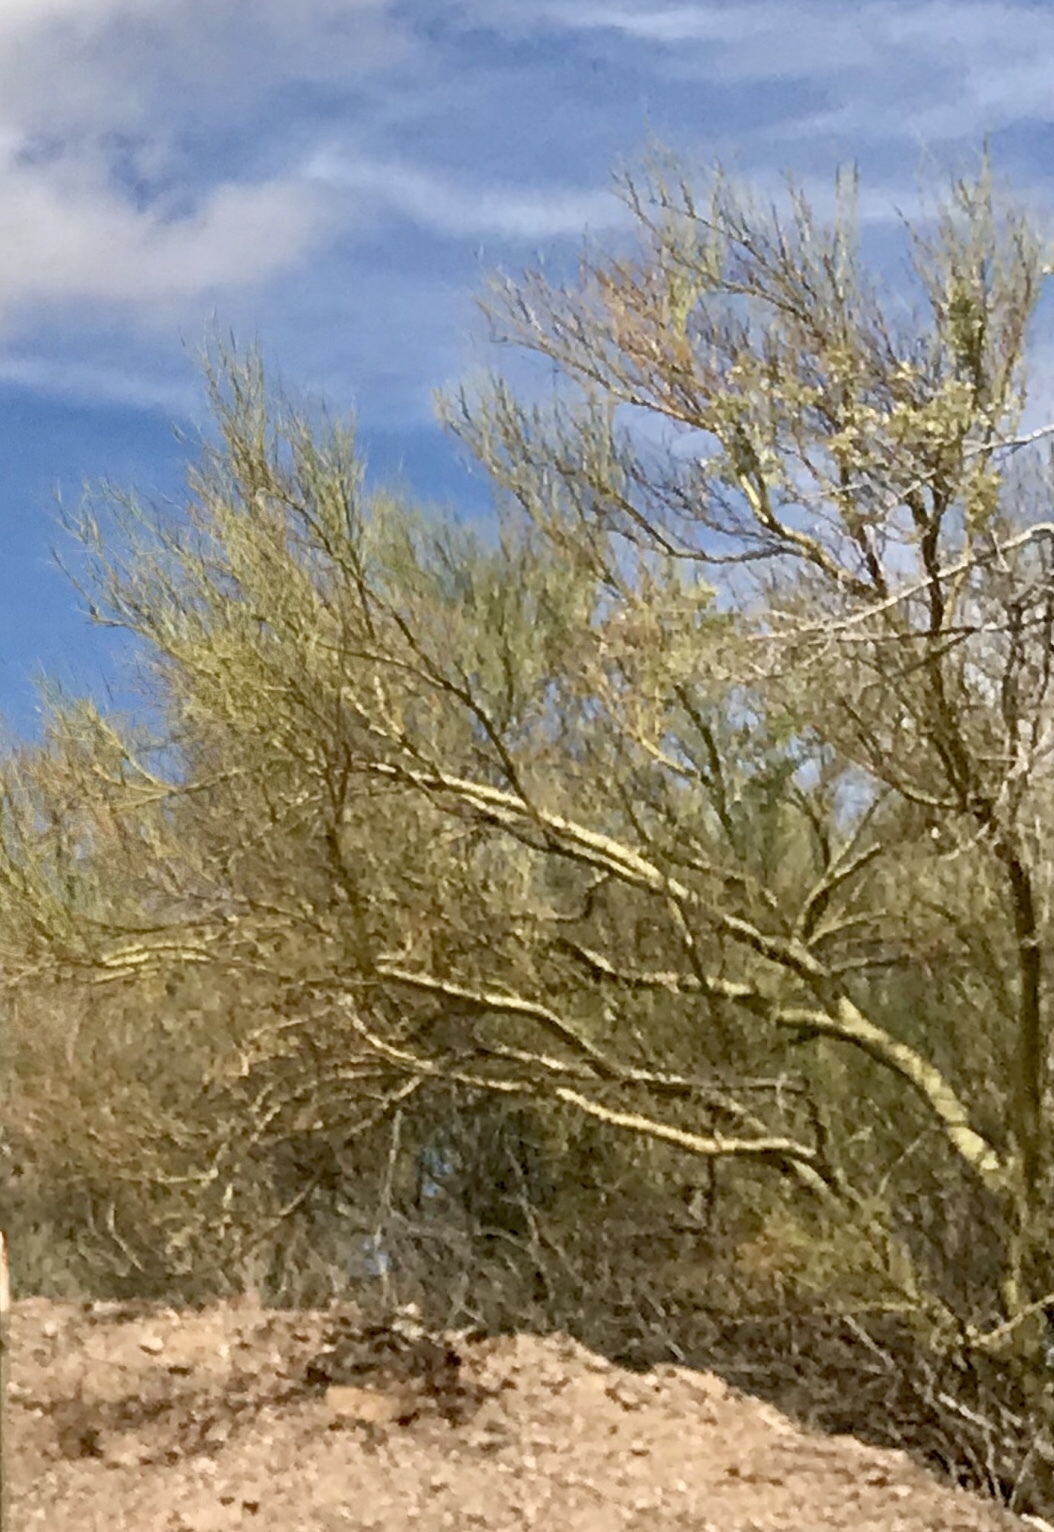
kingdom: Plantae
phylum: Tracheophyta
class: Magnoliopsida
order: Fabales
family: Fabaceae
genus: Parkinsonia
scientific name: Parkinsonia microphylla
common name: Yellow paloverde
